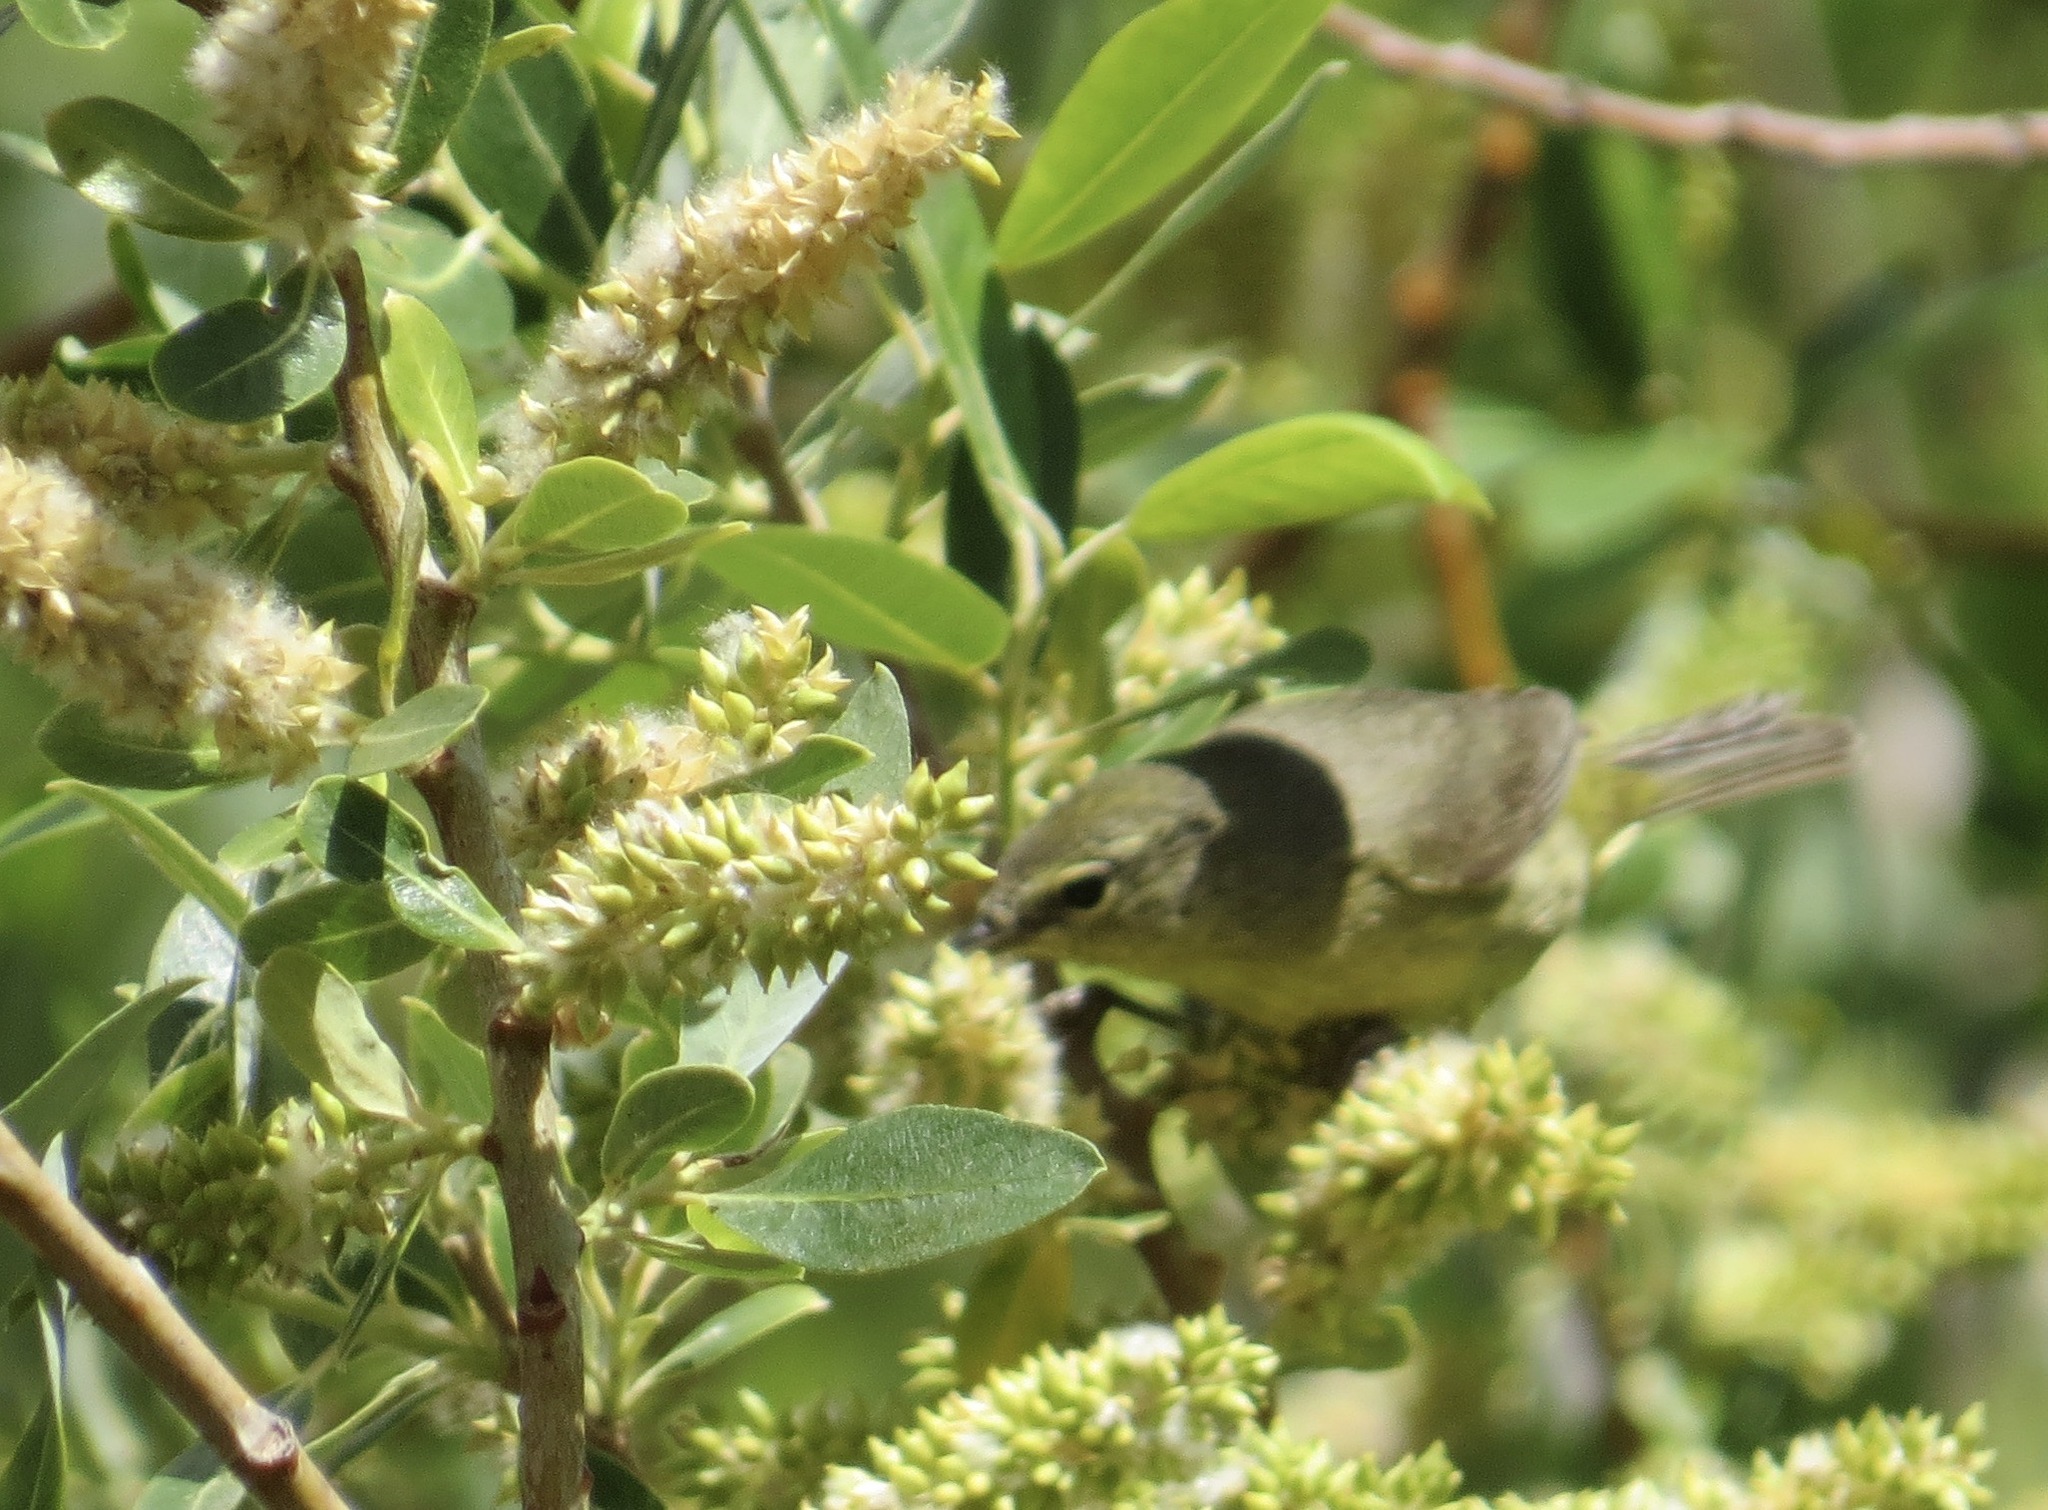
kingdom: Animalia
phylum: Chordata
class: Aves
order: Passeriformes
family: Parulidae
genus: Leiothlypis
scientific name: Leiothlypis celata
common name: Orange-crowned warbler
